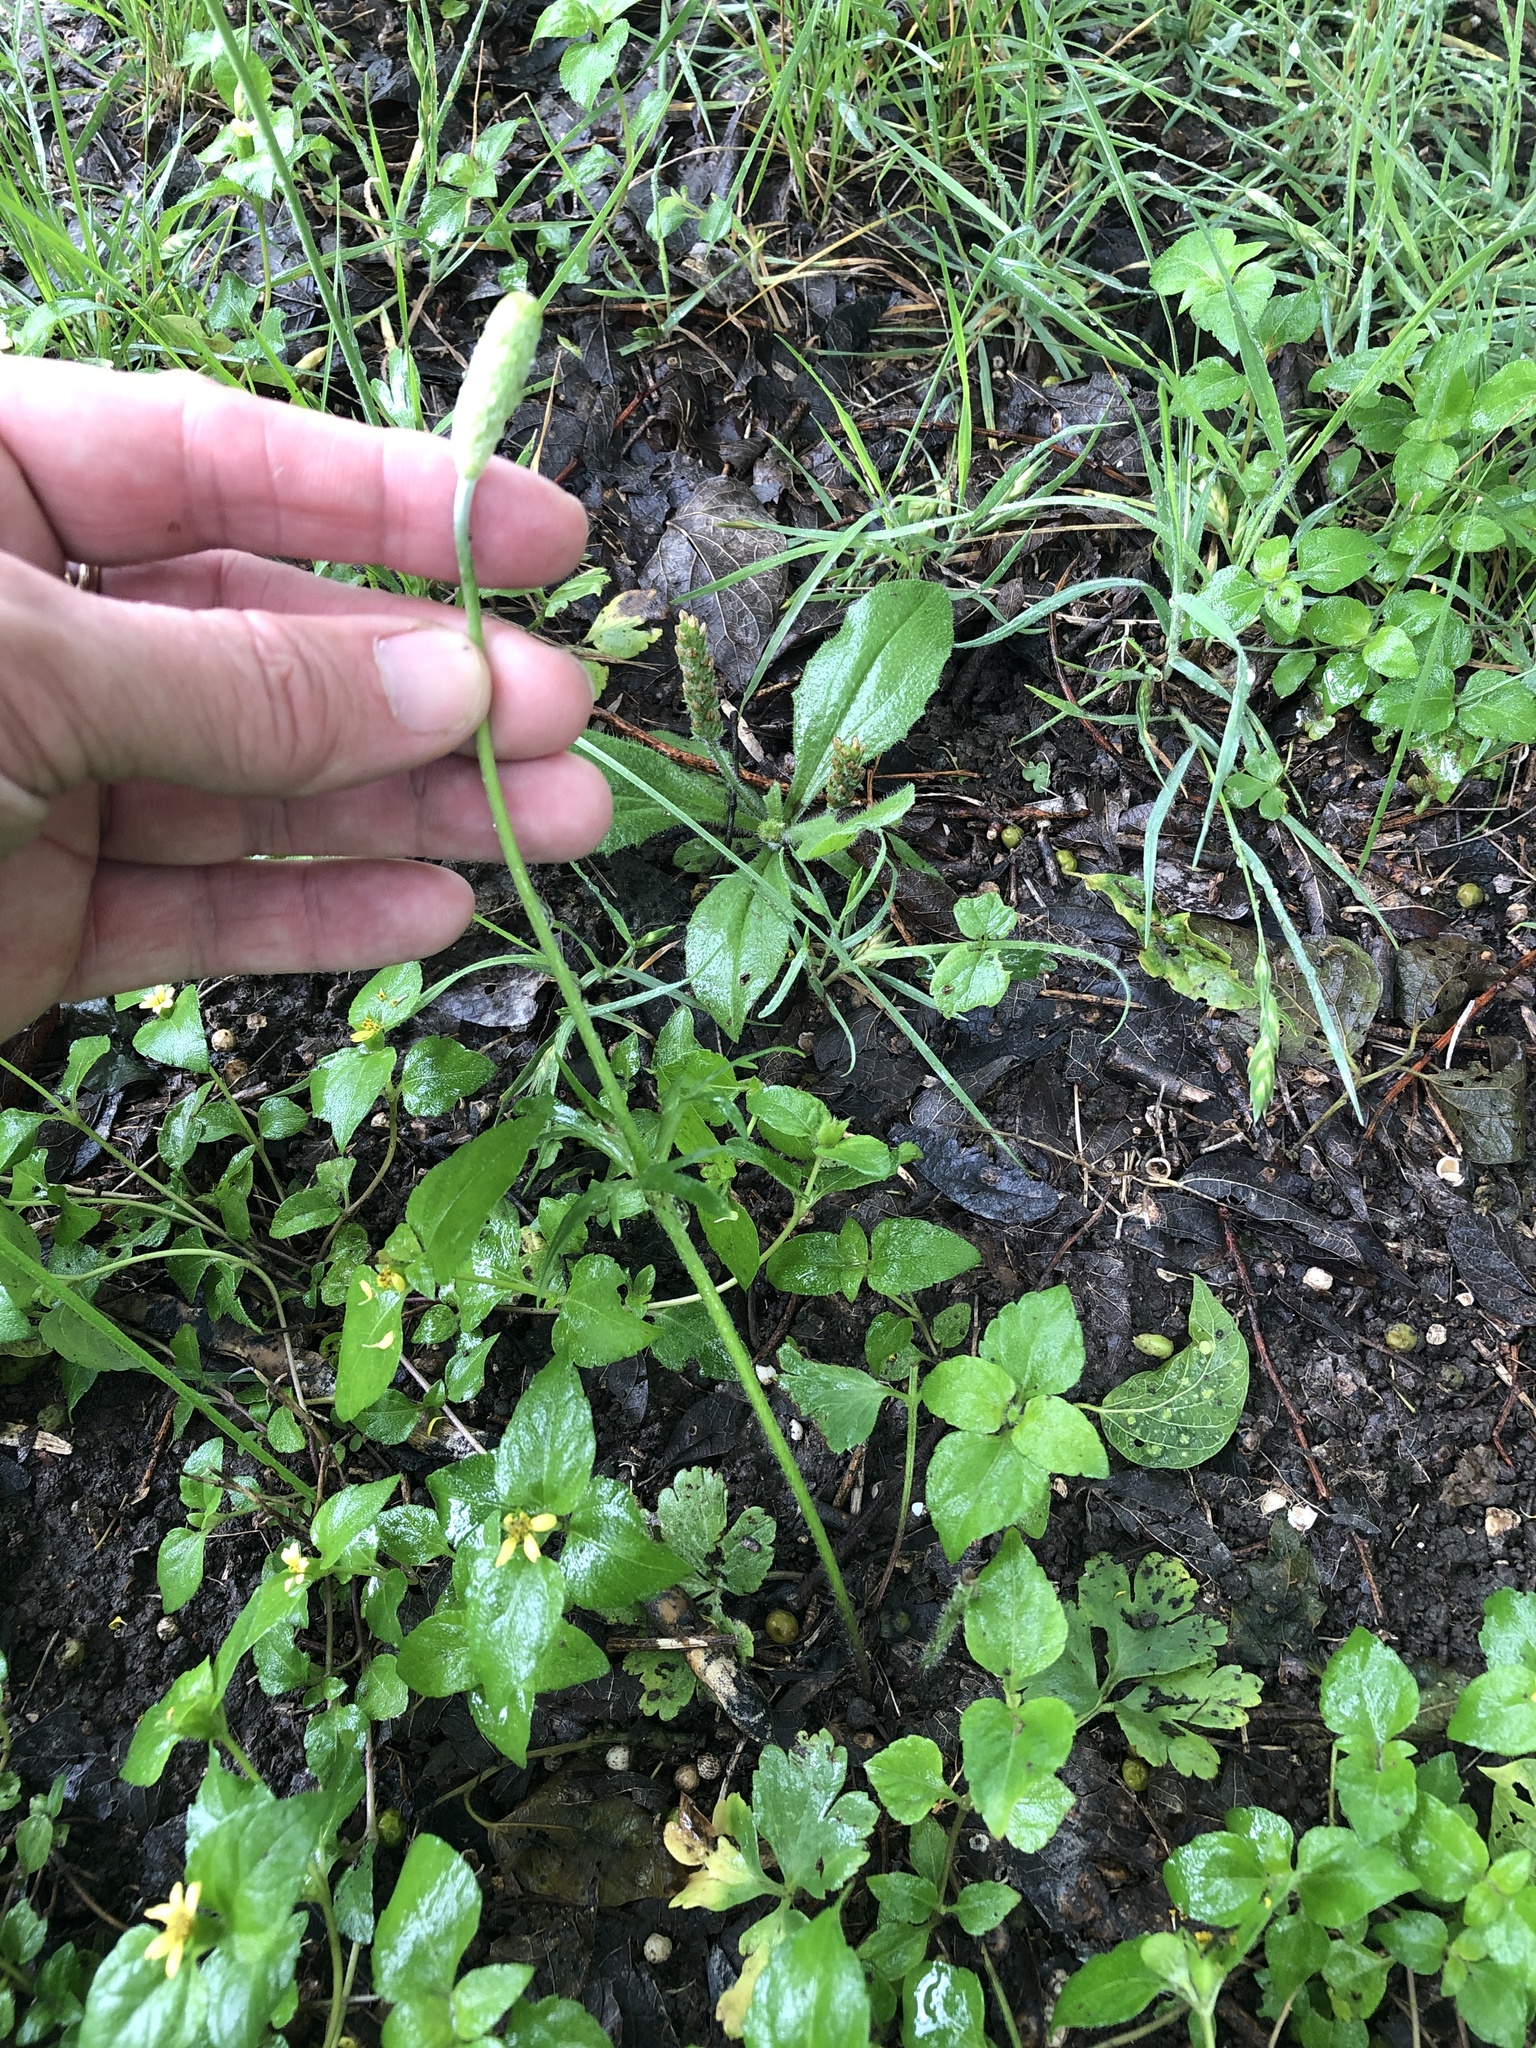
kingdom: Plantae
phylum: Tracheophyta
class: Magnoliopsida
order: Ranunculales
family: Ranunculaceae
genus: Anemone
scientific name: Anemone berlandieri
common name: Ten-petal anemone
